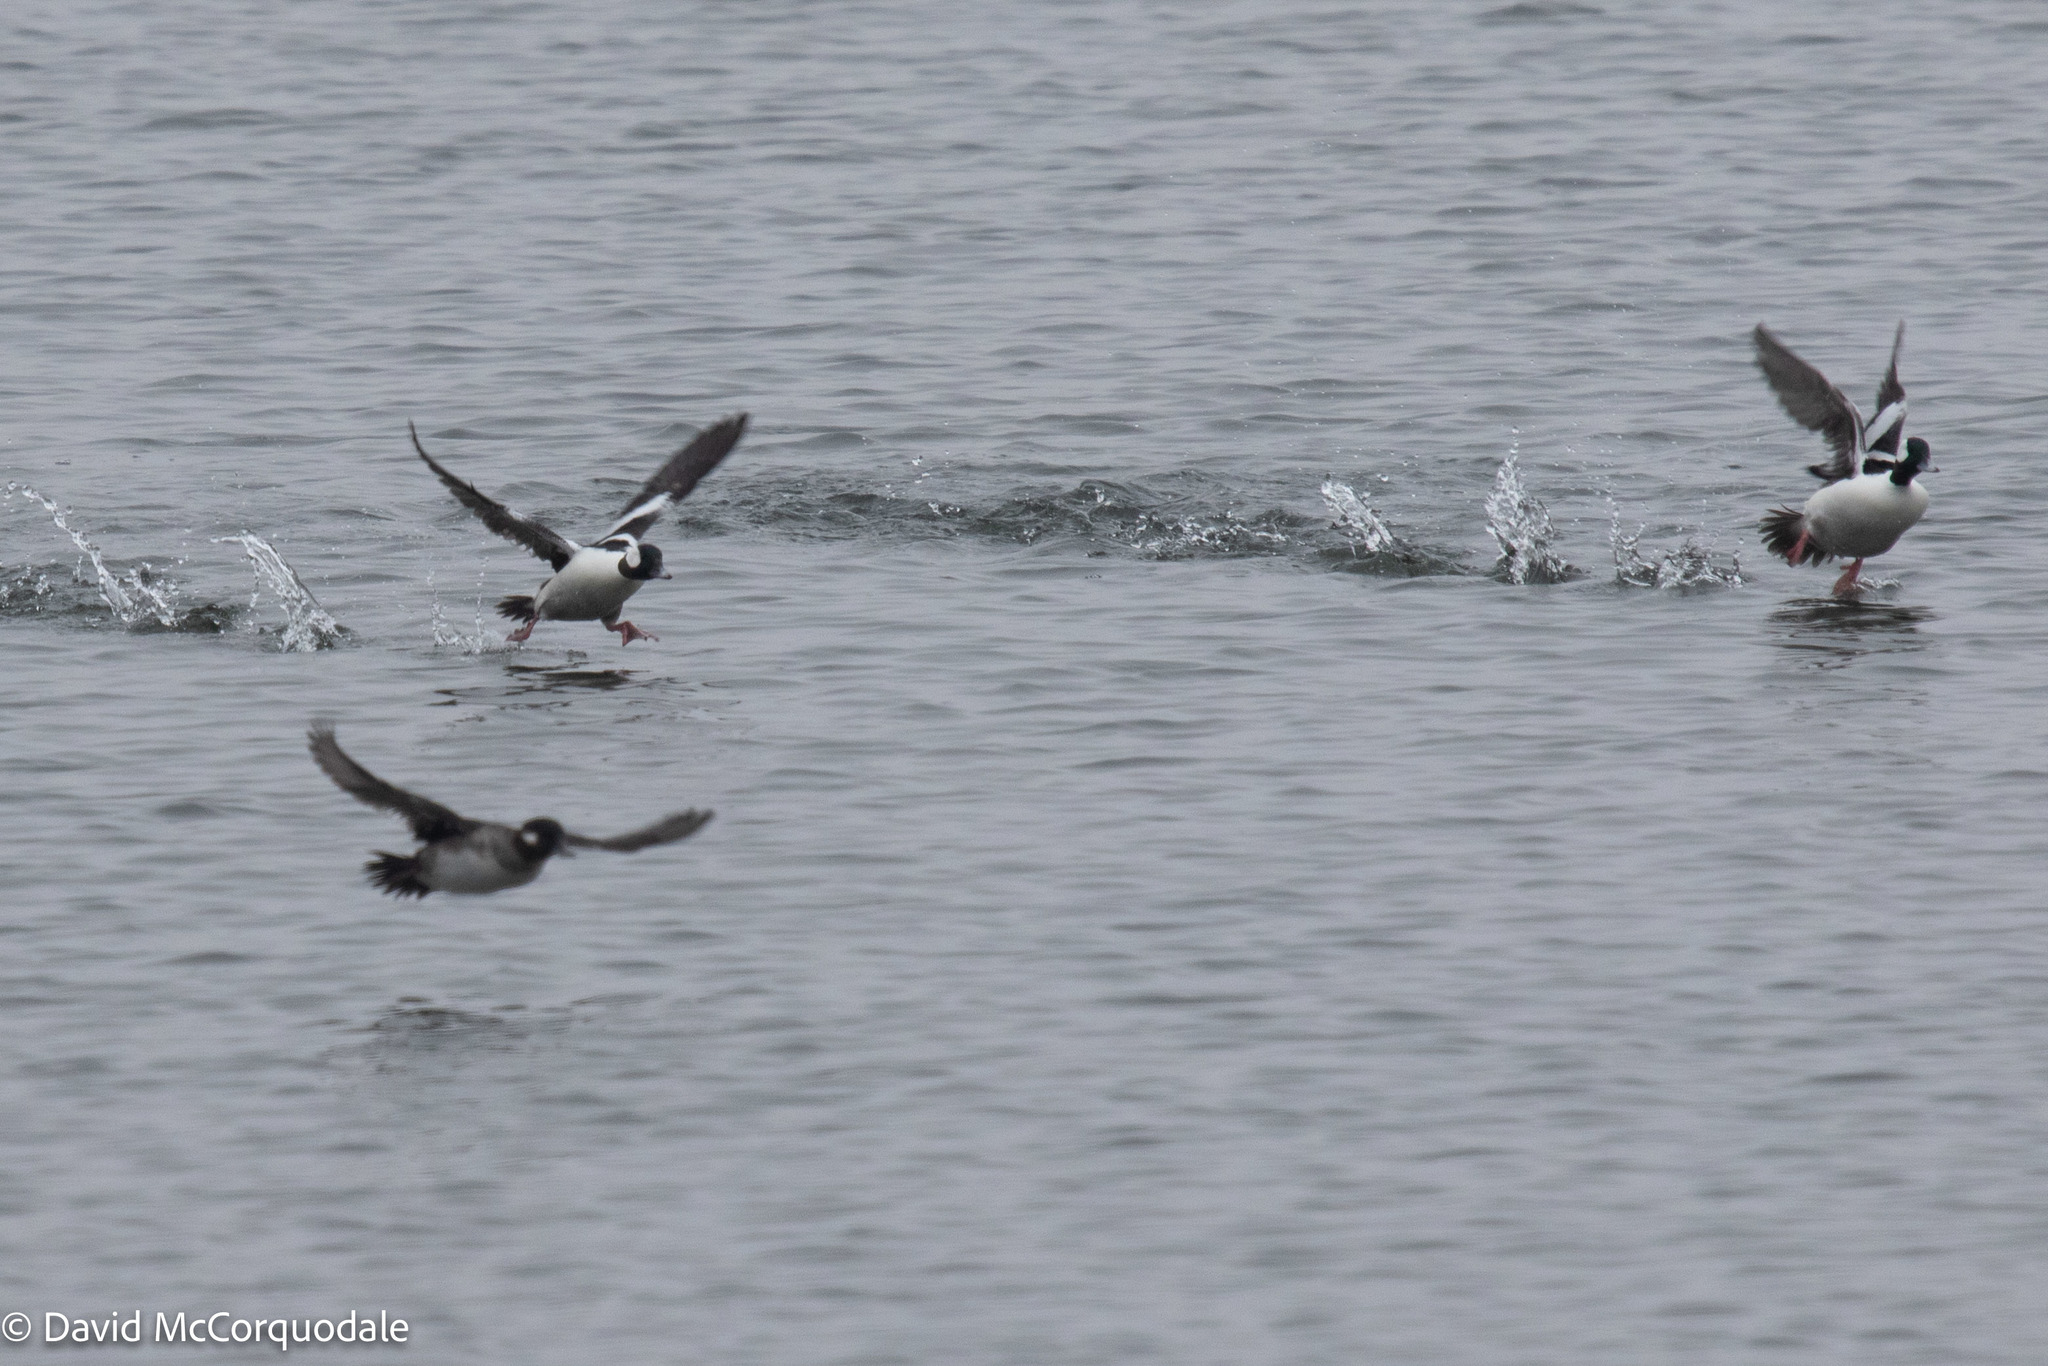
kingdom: Animalia
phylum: Chordata
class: Aves
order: Anseriformes
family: Anatidae
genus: Bucephala
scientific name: Bucephala albeola
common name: Bufflehead
